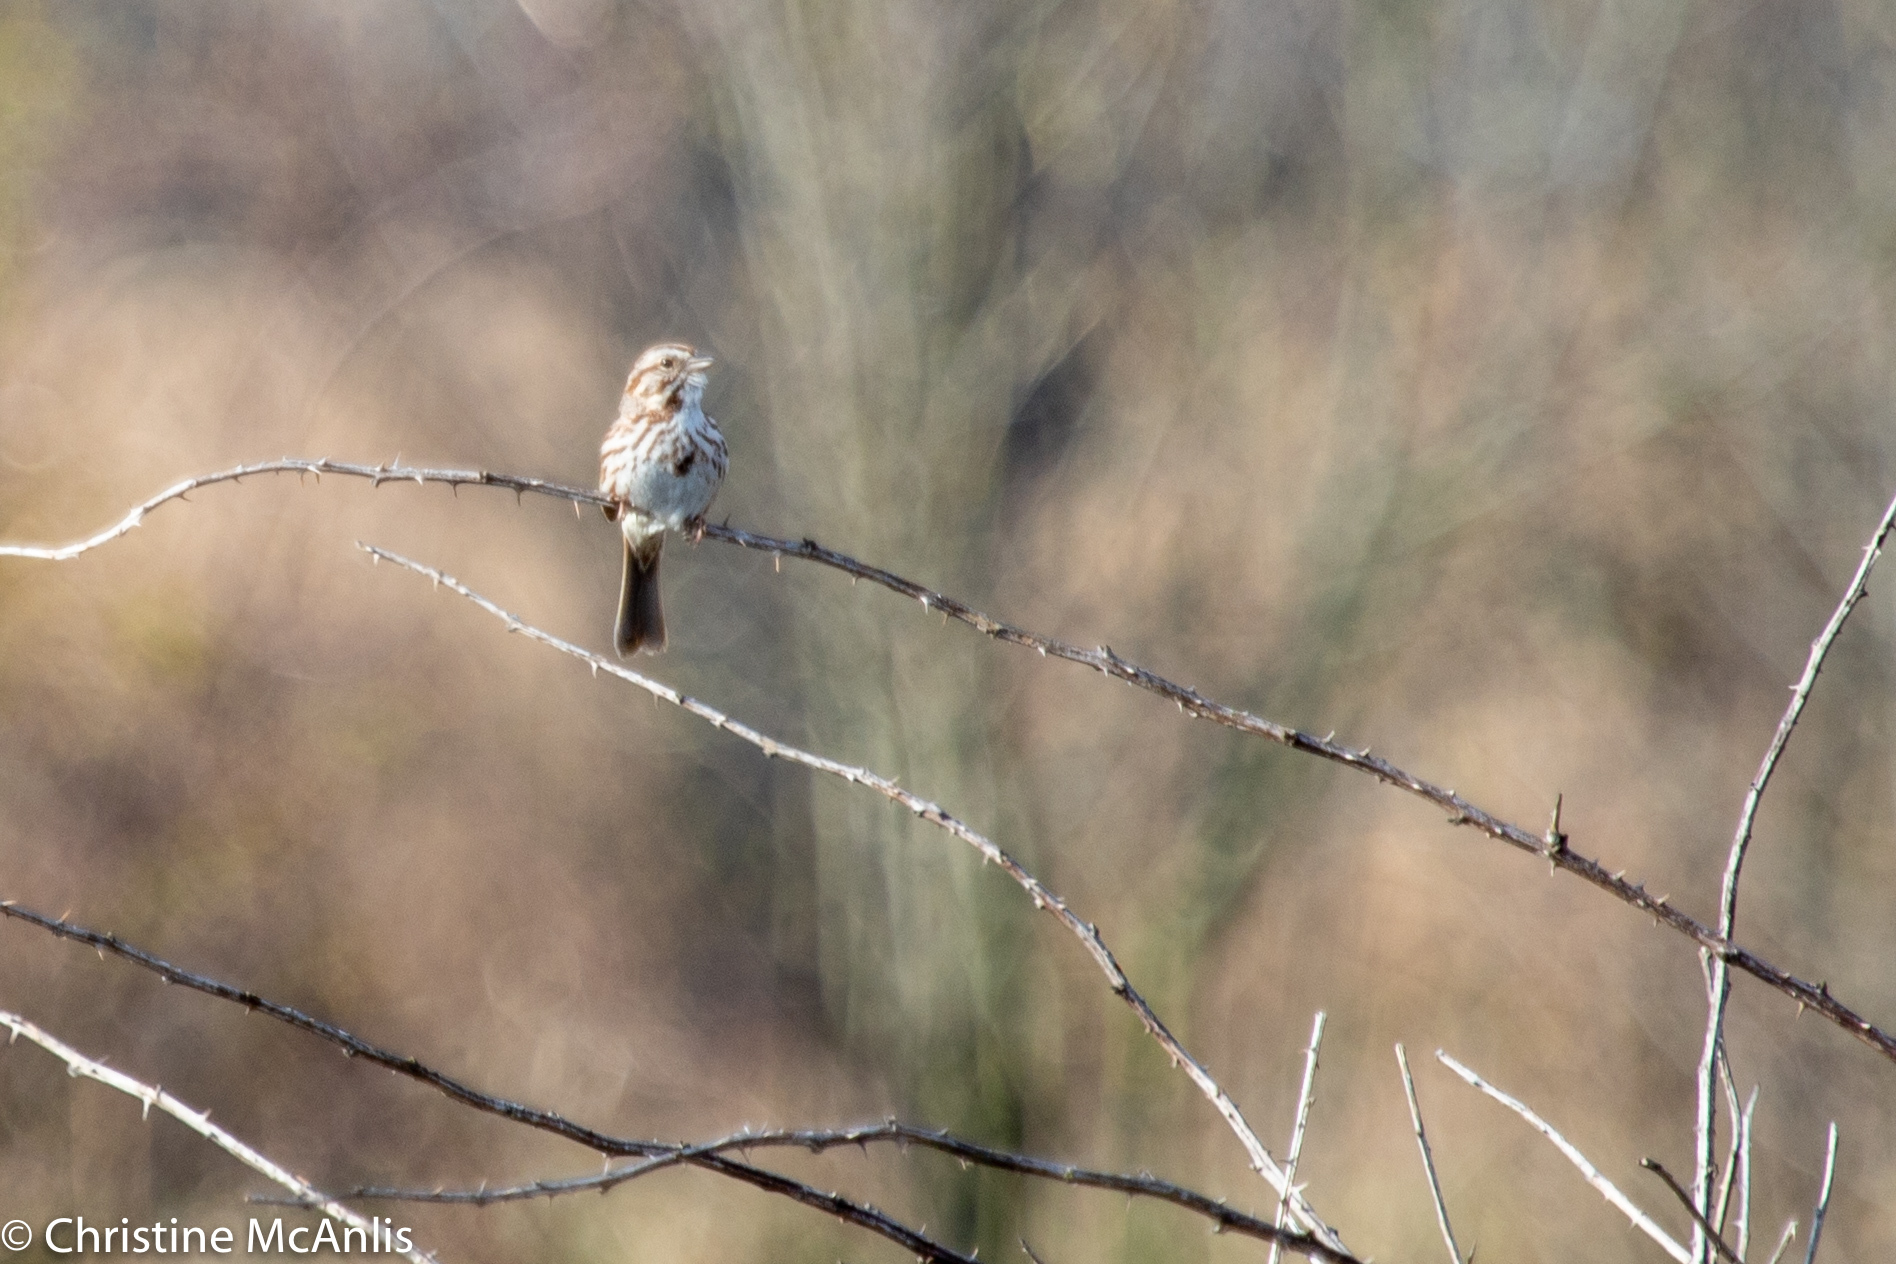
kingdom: Animalia
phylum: Chordata
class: Aves
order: Passeriformes
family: Passerellidae
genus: Melospiza
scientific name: Melospiza melodia
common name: Song sparrow
